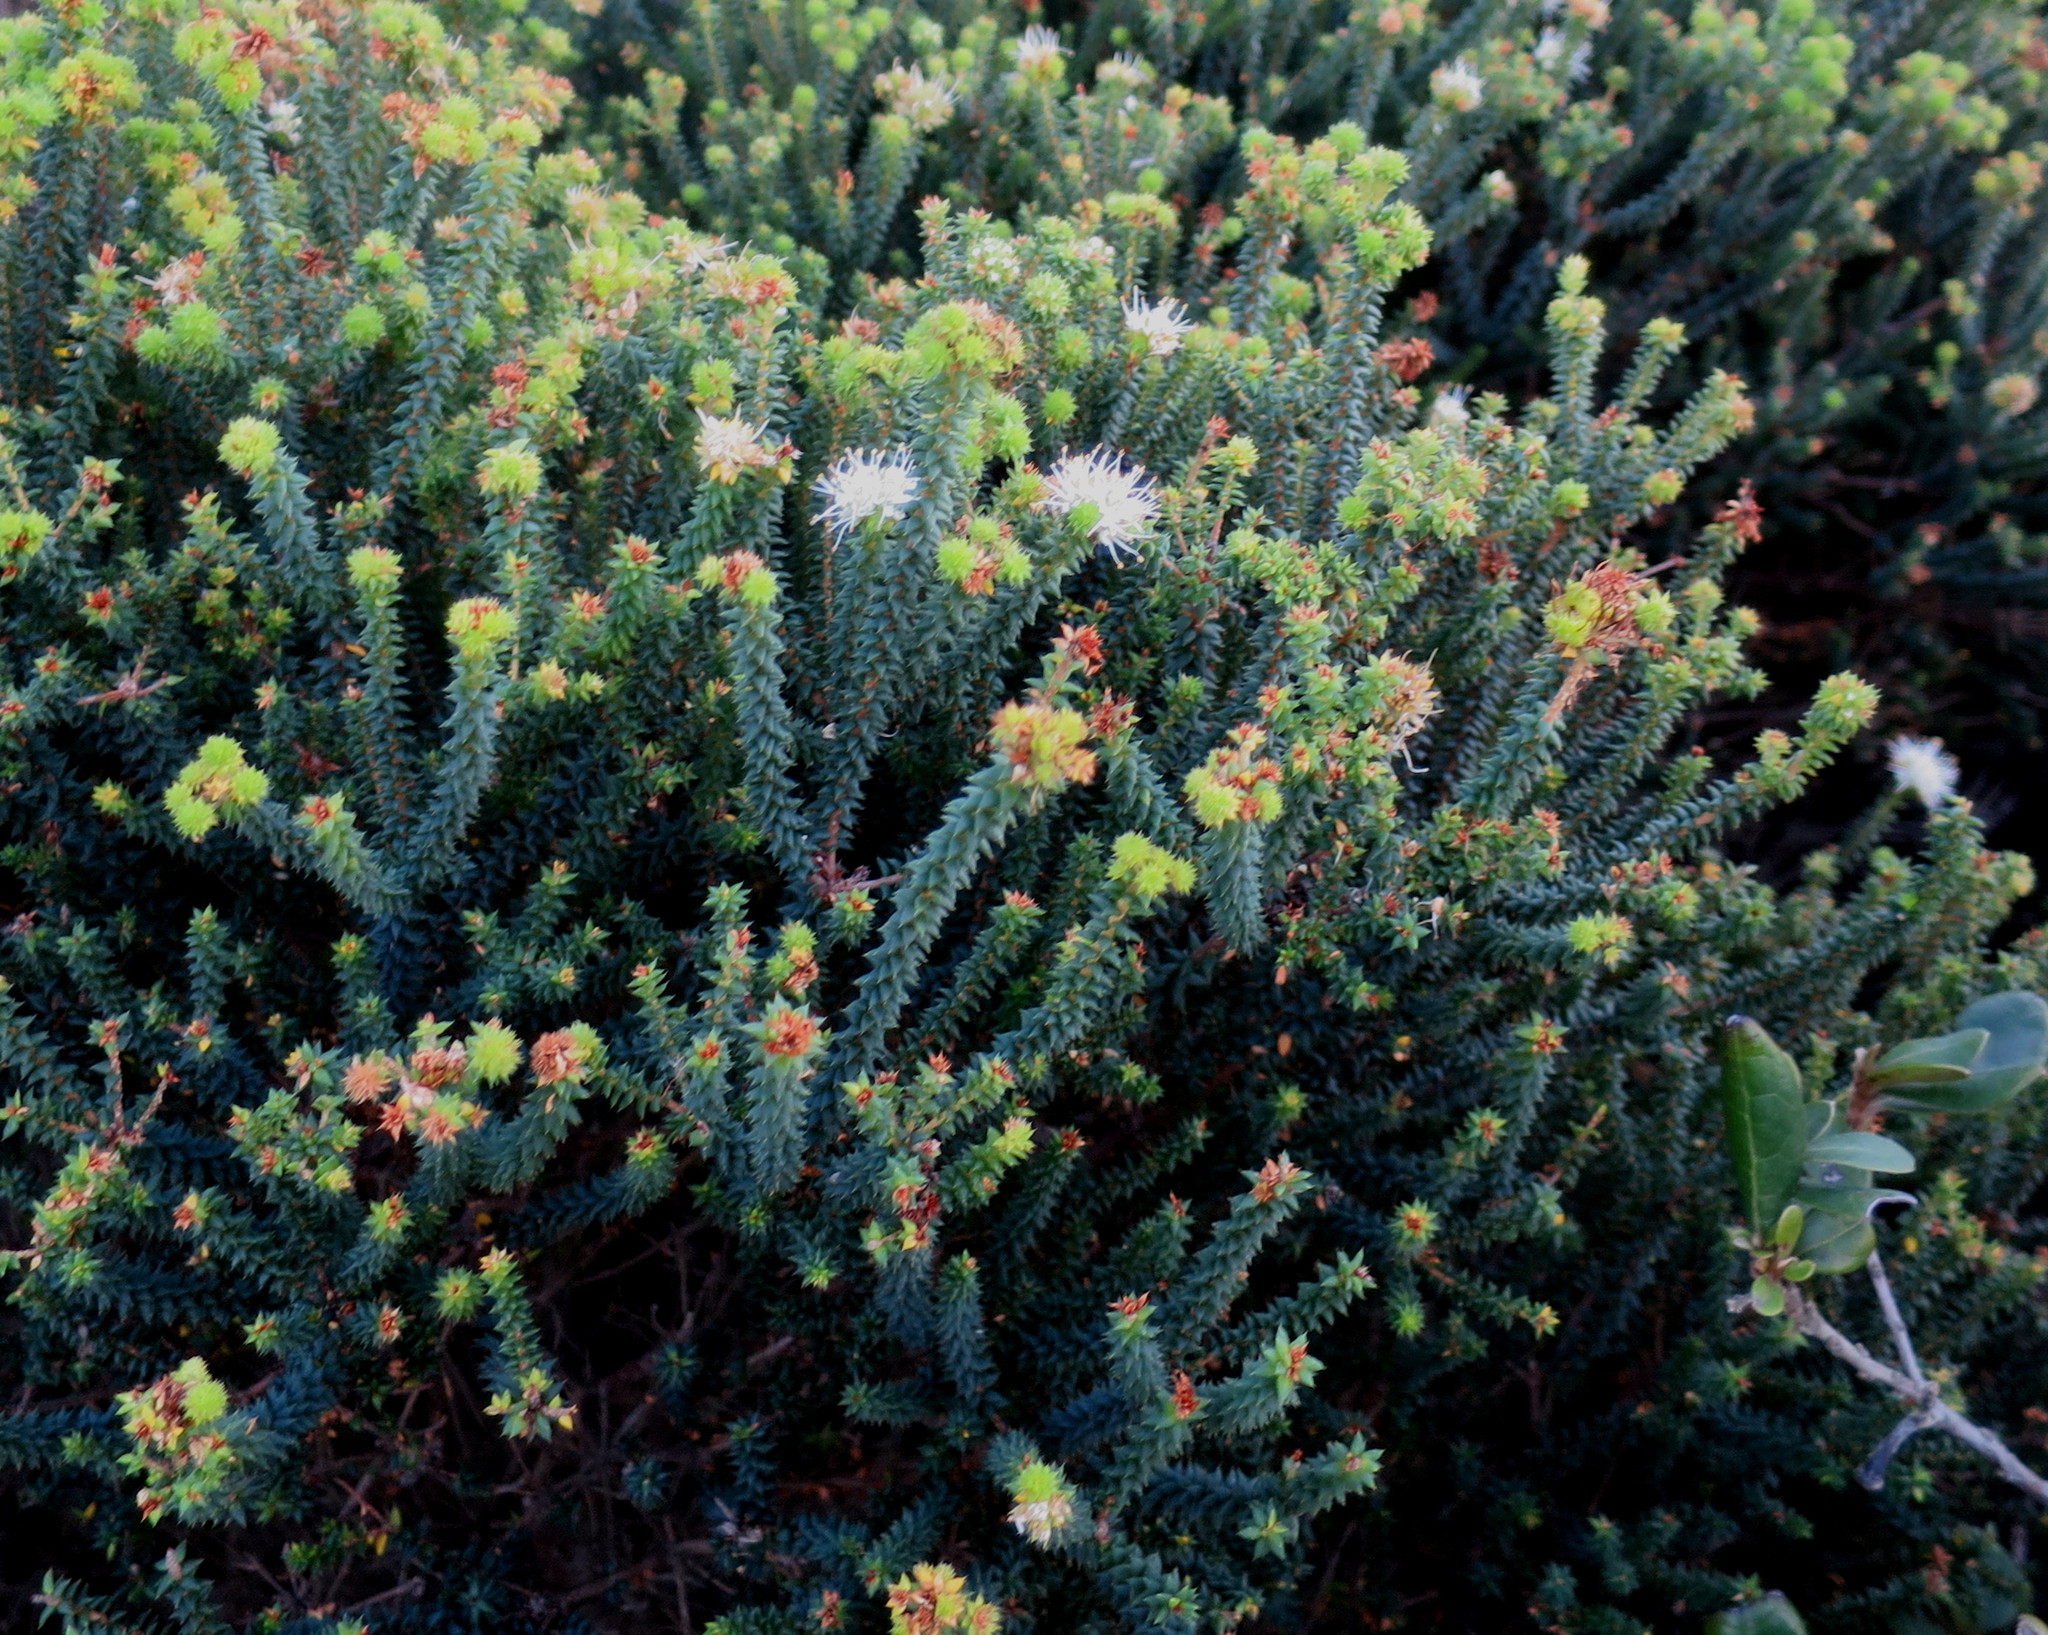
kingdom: Plantae
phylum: Tracheophyta
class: Magnoliopsida
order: Sapindales
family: Rutaceae
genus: Agathosma
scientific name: Agathosma apiculata
